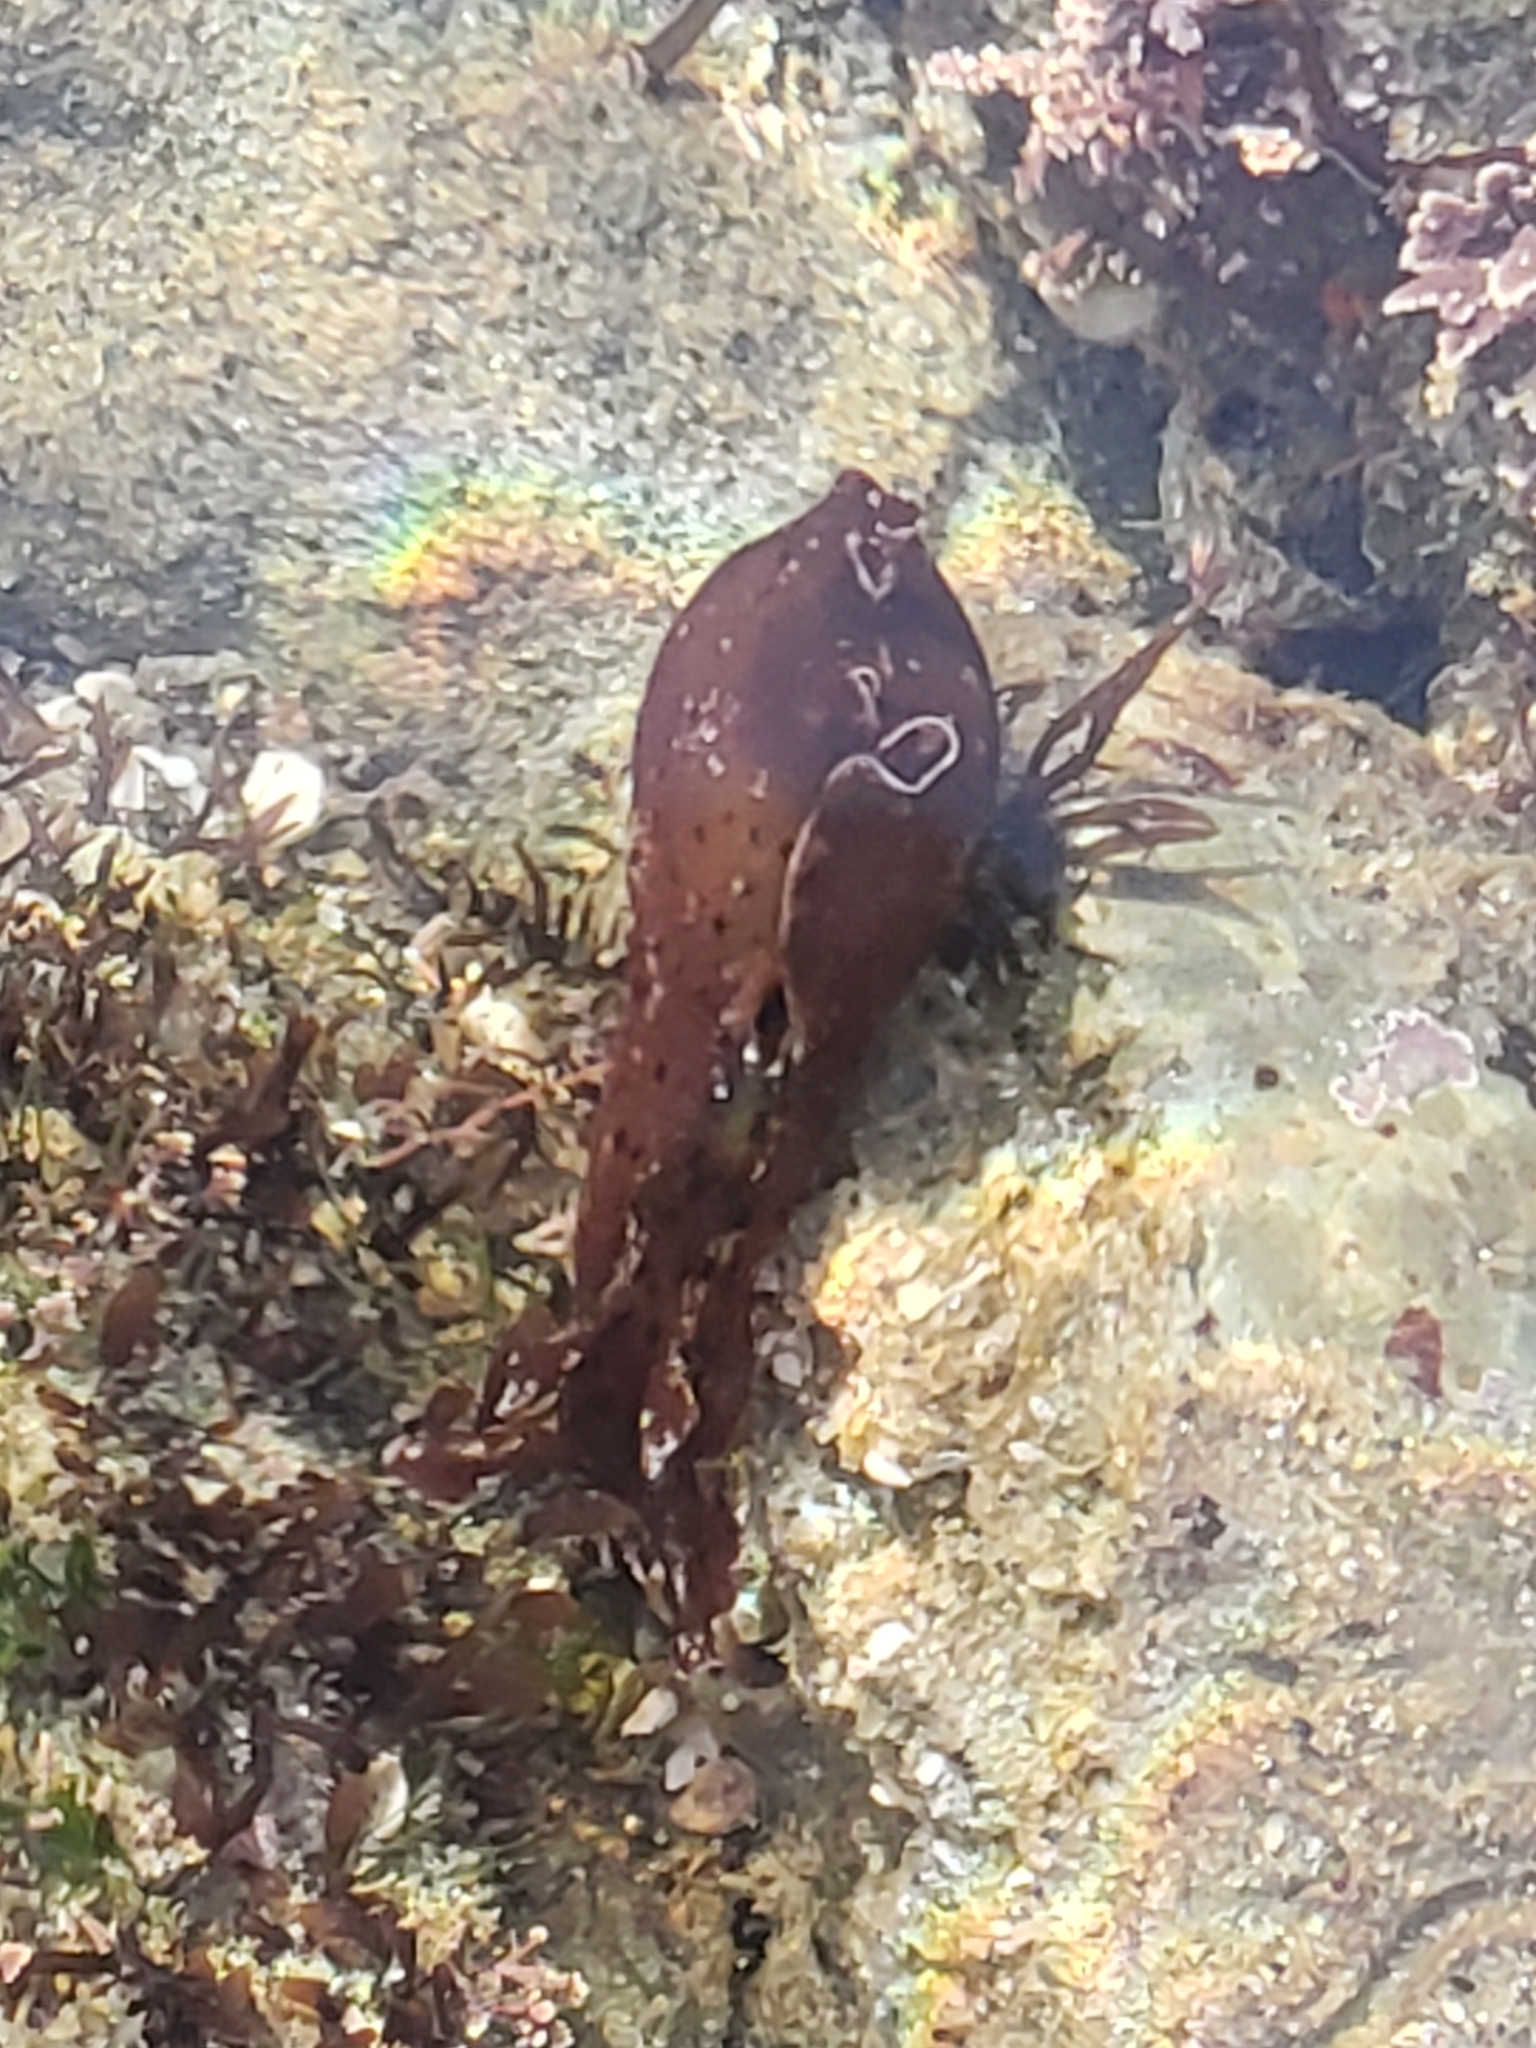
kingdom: Animalia
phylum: Mollusca
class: Gastropoda
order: Aplysiida
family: Aplysiidae
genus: Aplysia
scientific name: Aplysia californica
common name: California seahare
